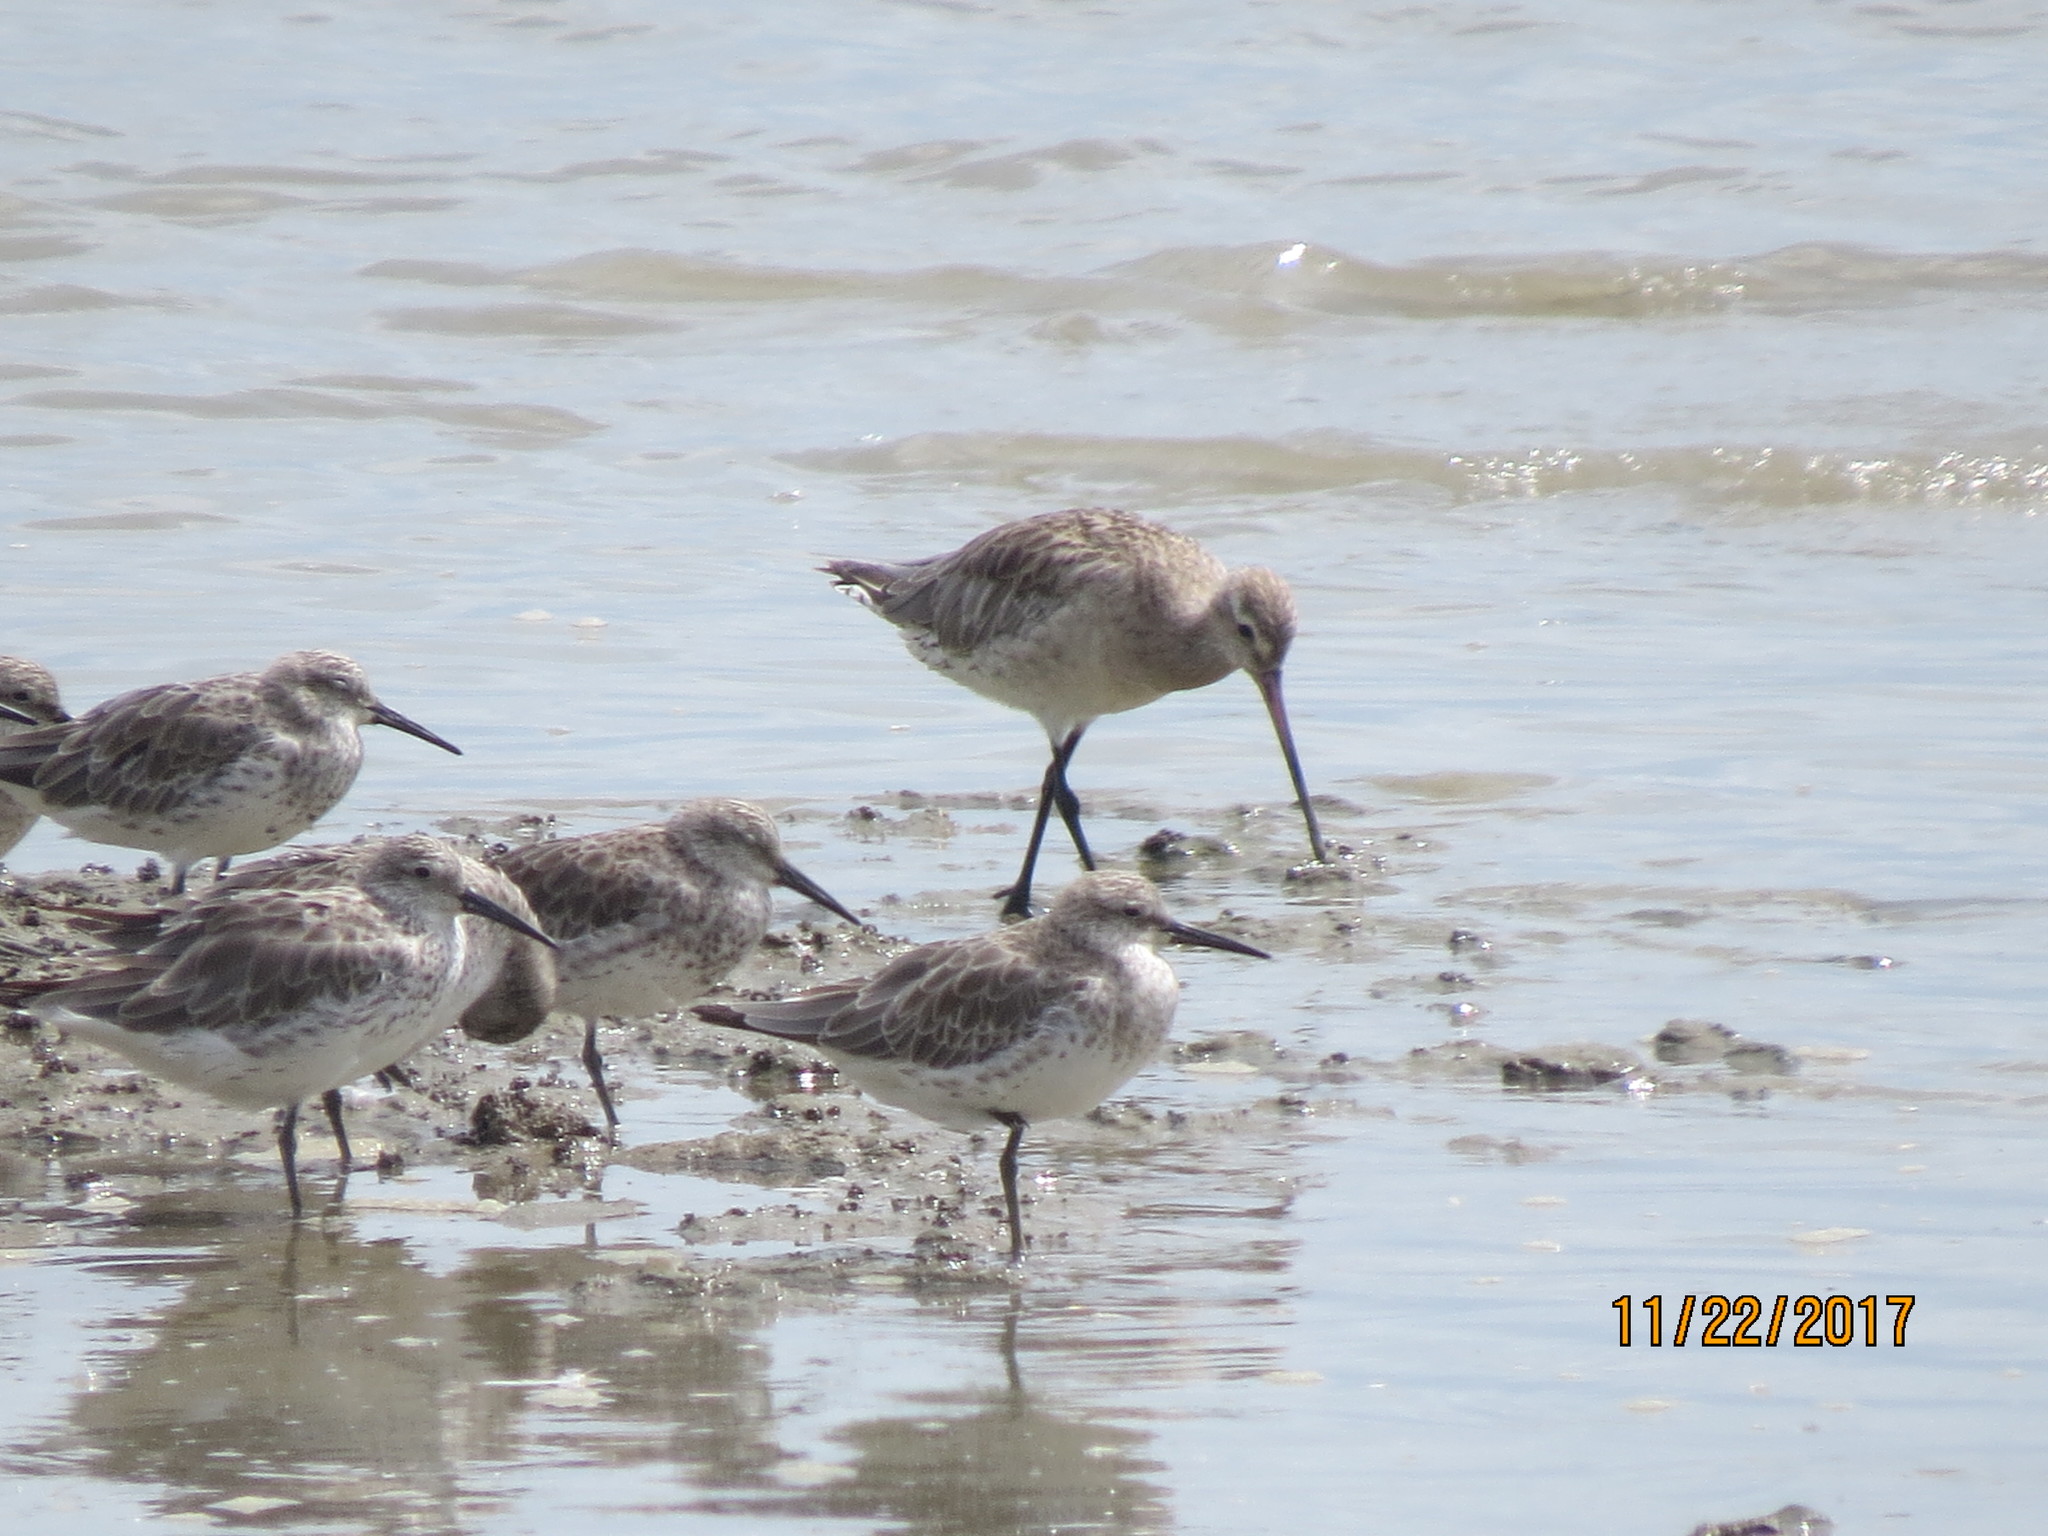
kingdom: Animalia
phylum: Chordata
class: Aves
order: Charadriiformes
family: Scolopacidae
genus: Calidris
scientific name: Calidris tenuirostris
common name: Great knot
